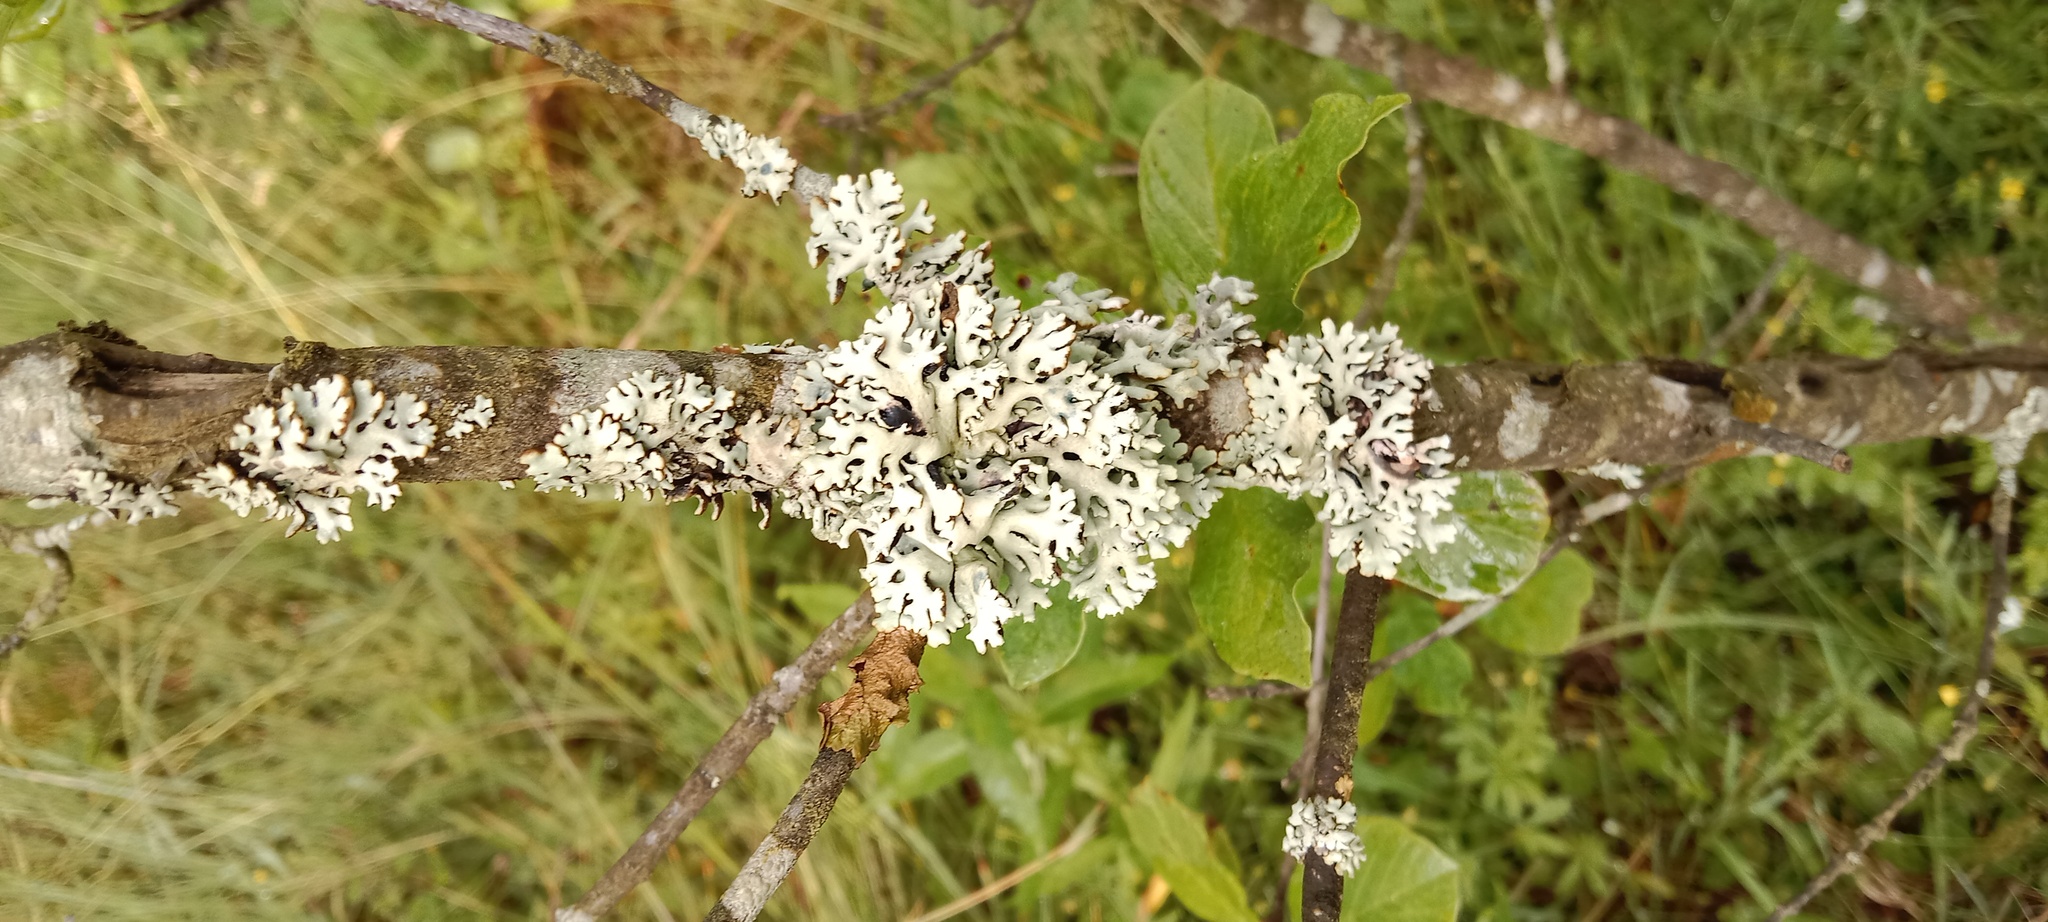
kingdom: Fungi
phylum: Ascomycota
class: Lecanoromycetes
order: Lecanorales
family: Parmeliaceae
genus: Hypogymnia
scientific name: Hypogymnia physodes
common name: Dark crottle
